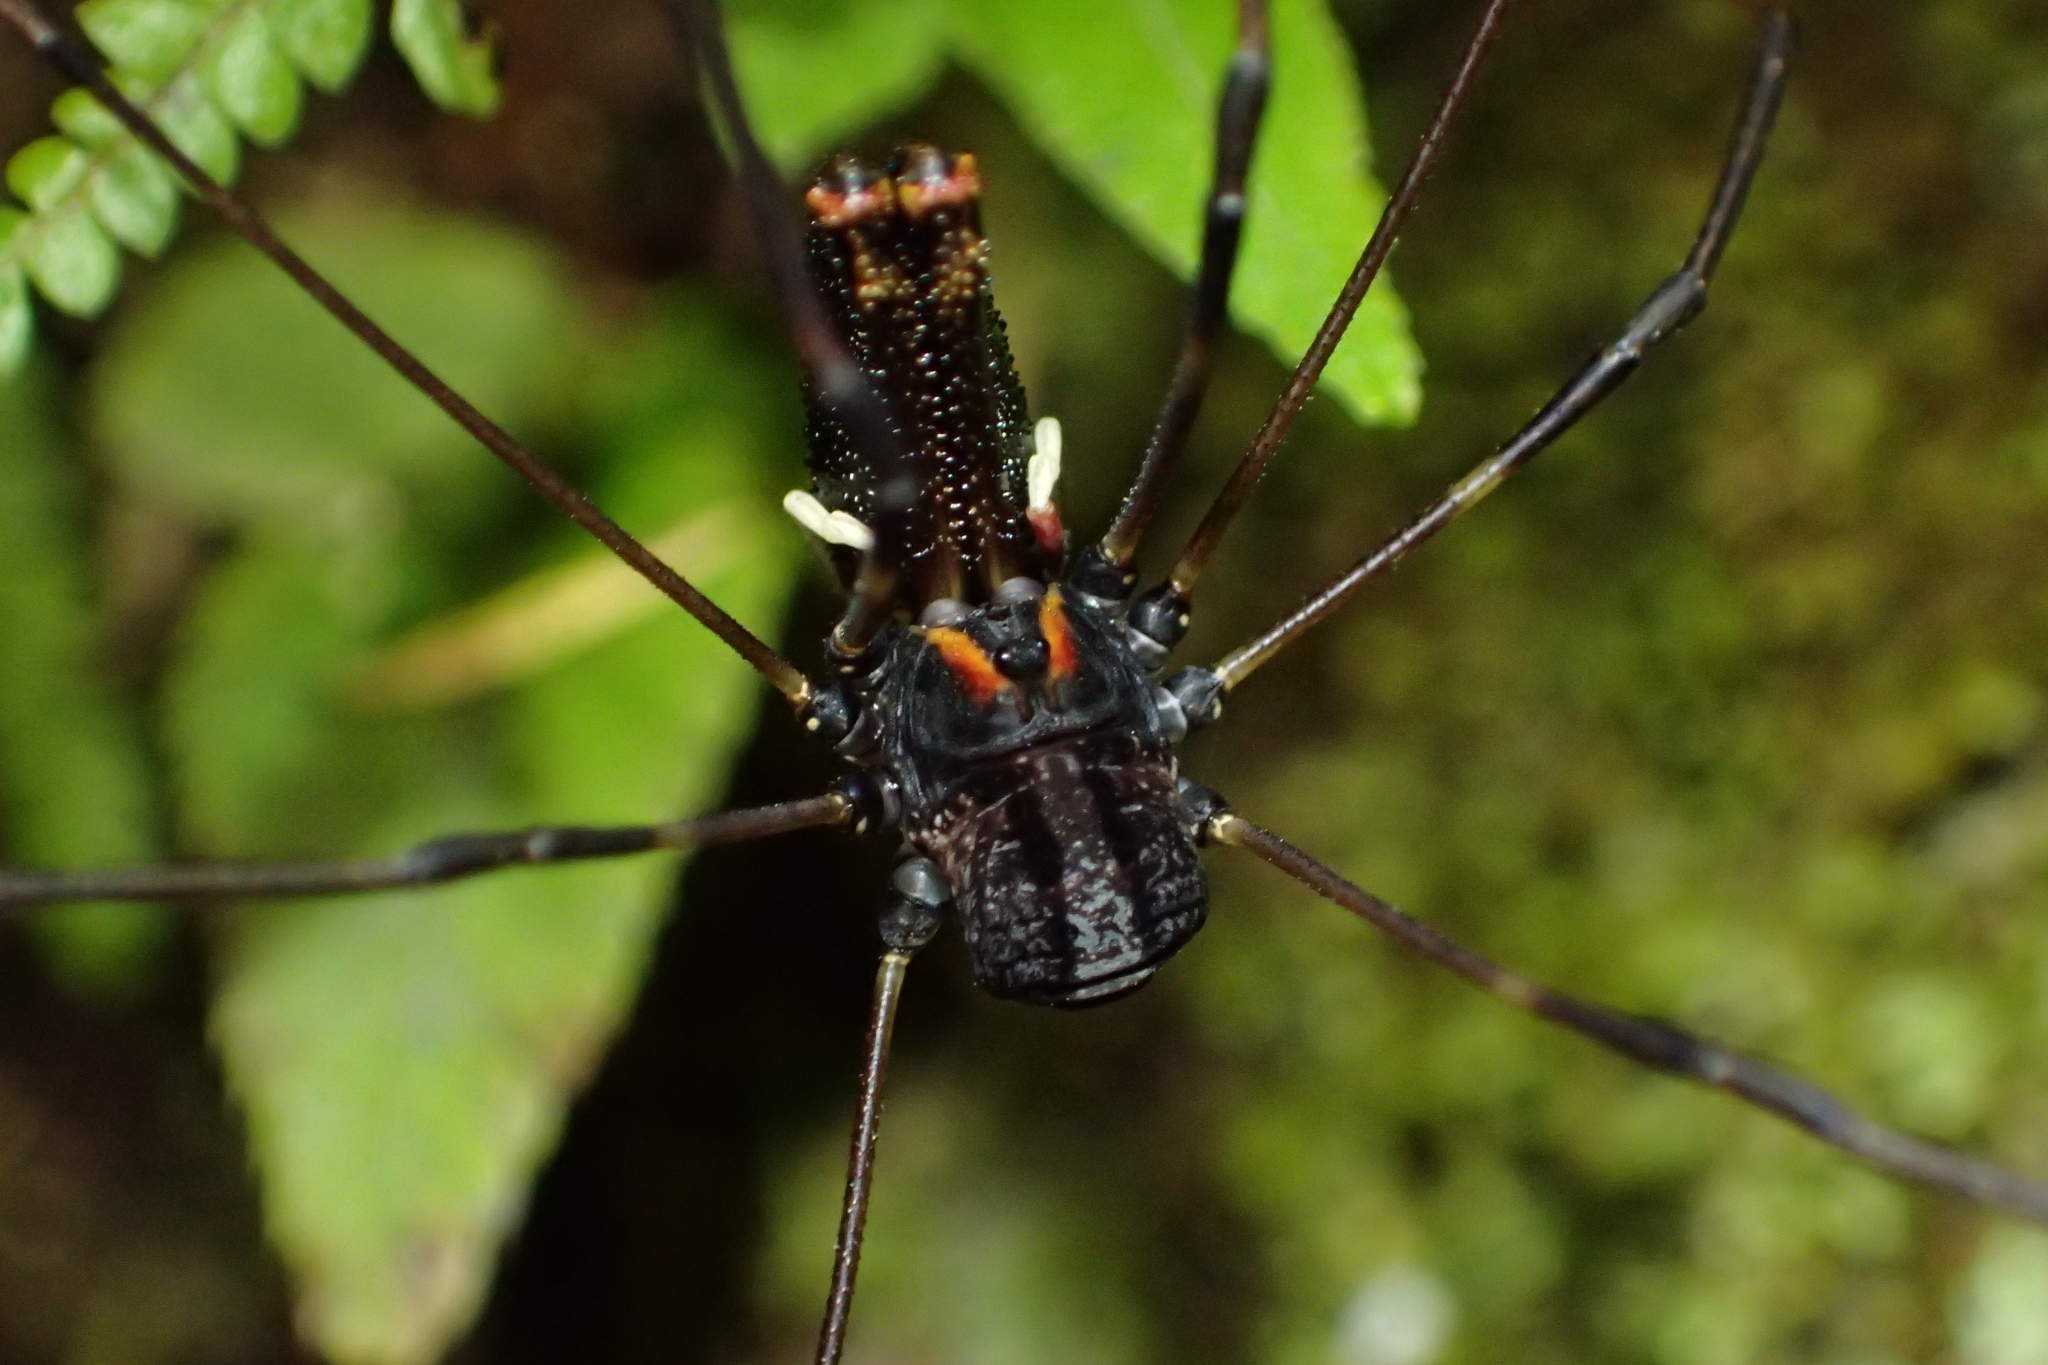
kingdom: Animalia
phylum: Arthropoda
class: Arachnida
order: Opiliones
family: Neopilionidae
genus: Forsteropsalis
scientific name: Forsteropsalis inconstans
